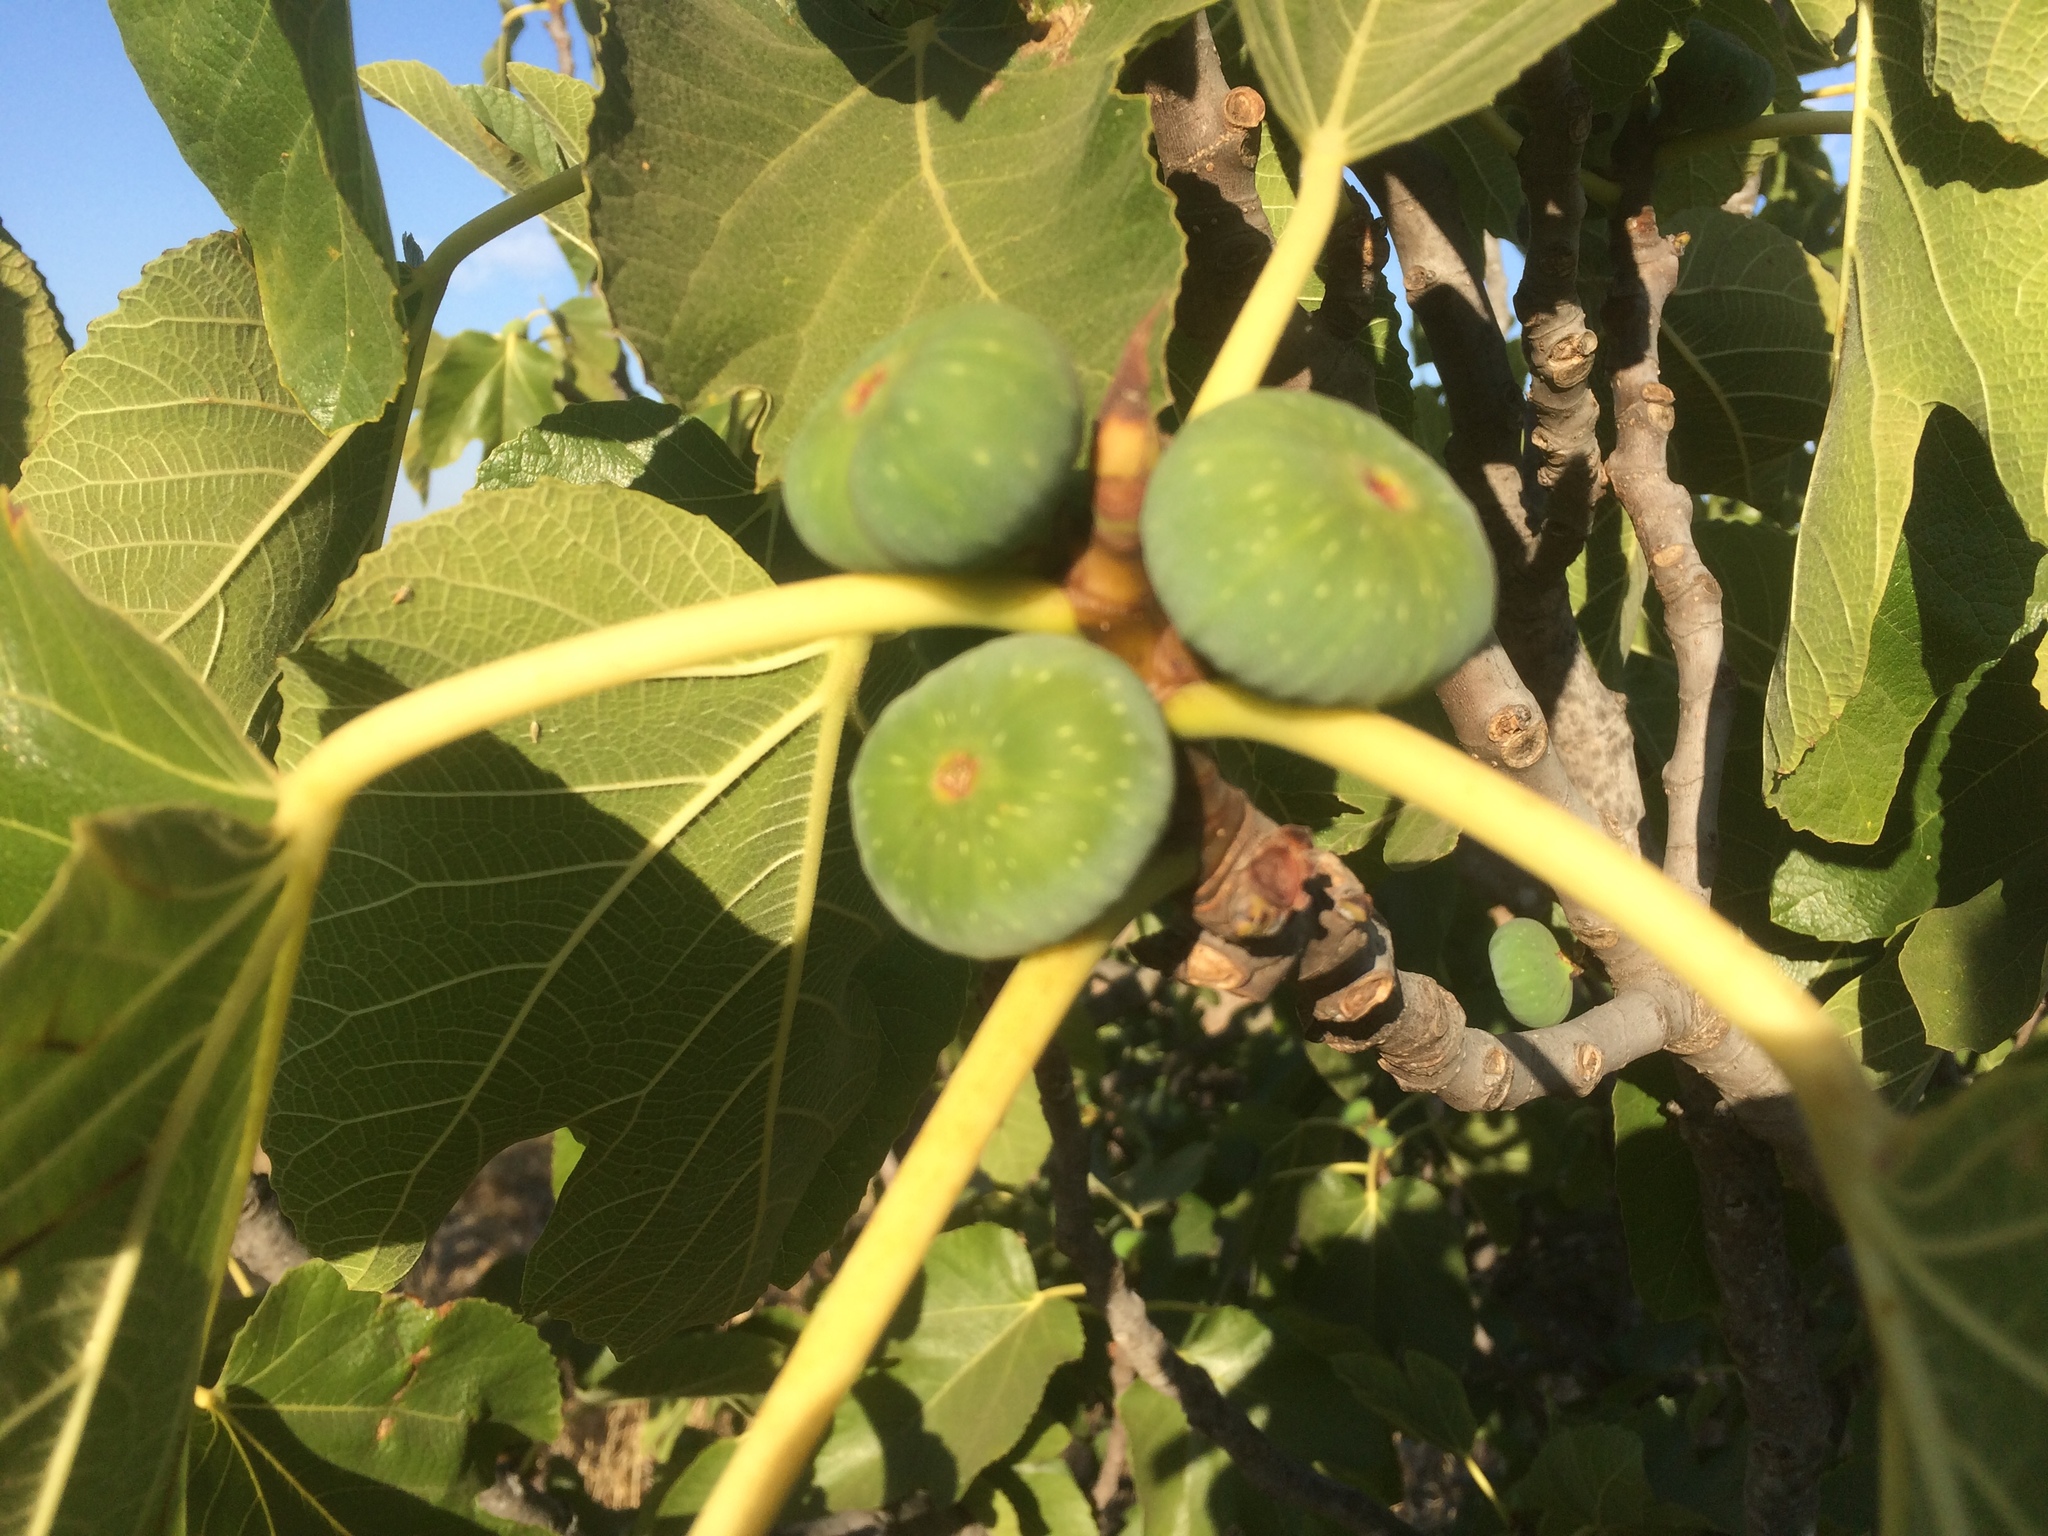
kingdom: Plantae
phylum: Tracheophyta
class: Magnoliopsida
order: Rosales
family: Moraceae
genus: Ficus
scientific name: Ficus carica
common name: Fig
